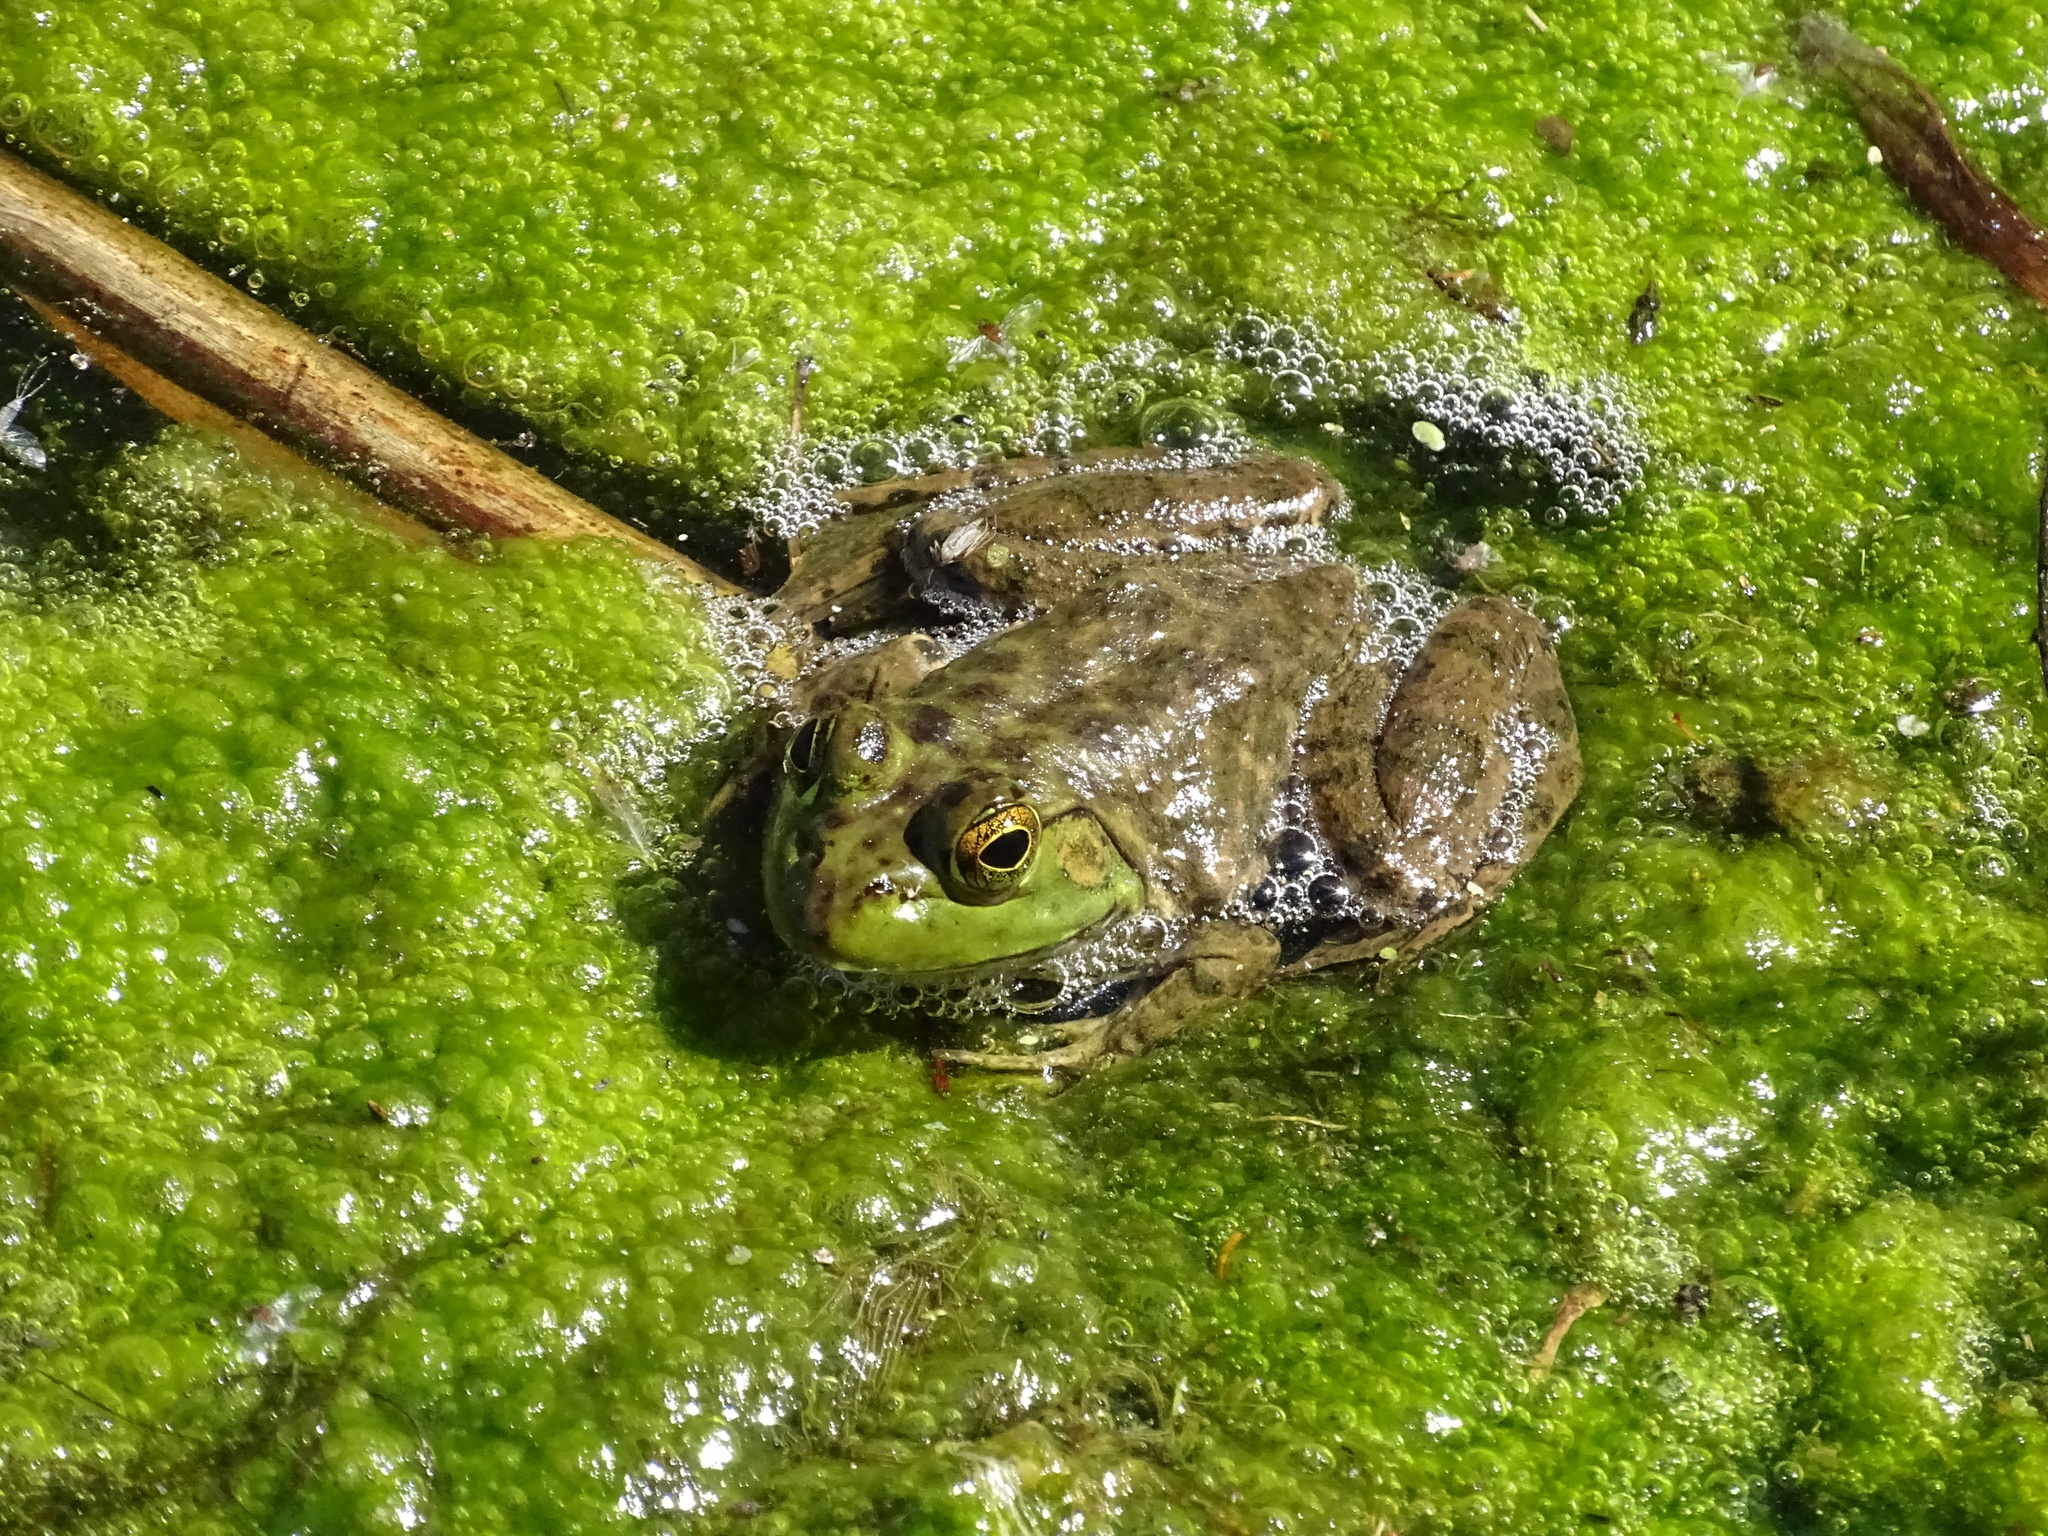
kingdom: Animalia
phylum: Chordata
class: Amphibia
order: Anura
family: Ranidae
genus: Lithobates
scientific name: Lithobates catesbeianus
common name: American bullfrog
